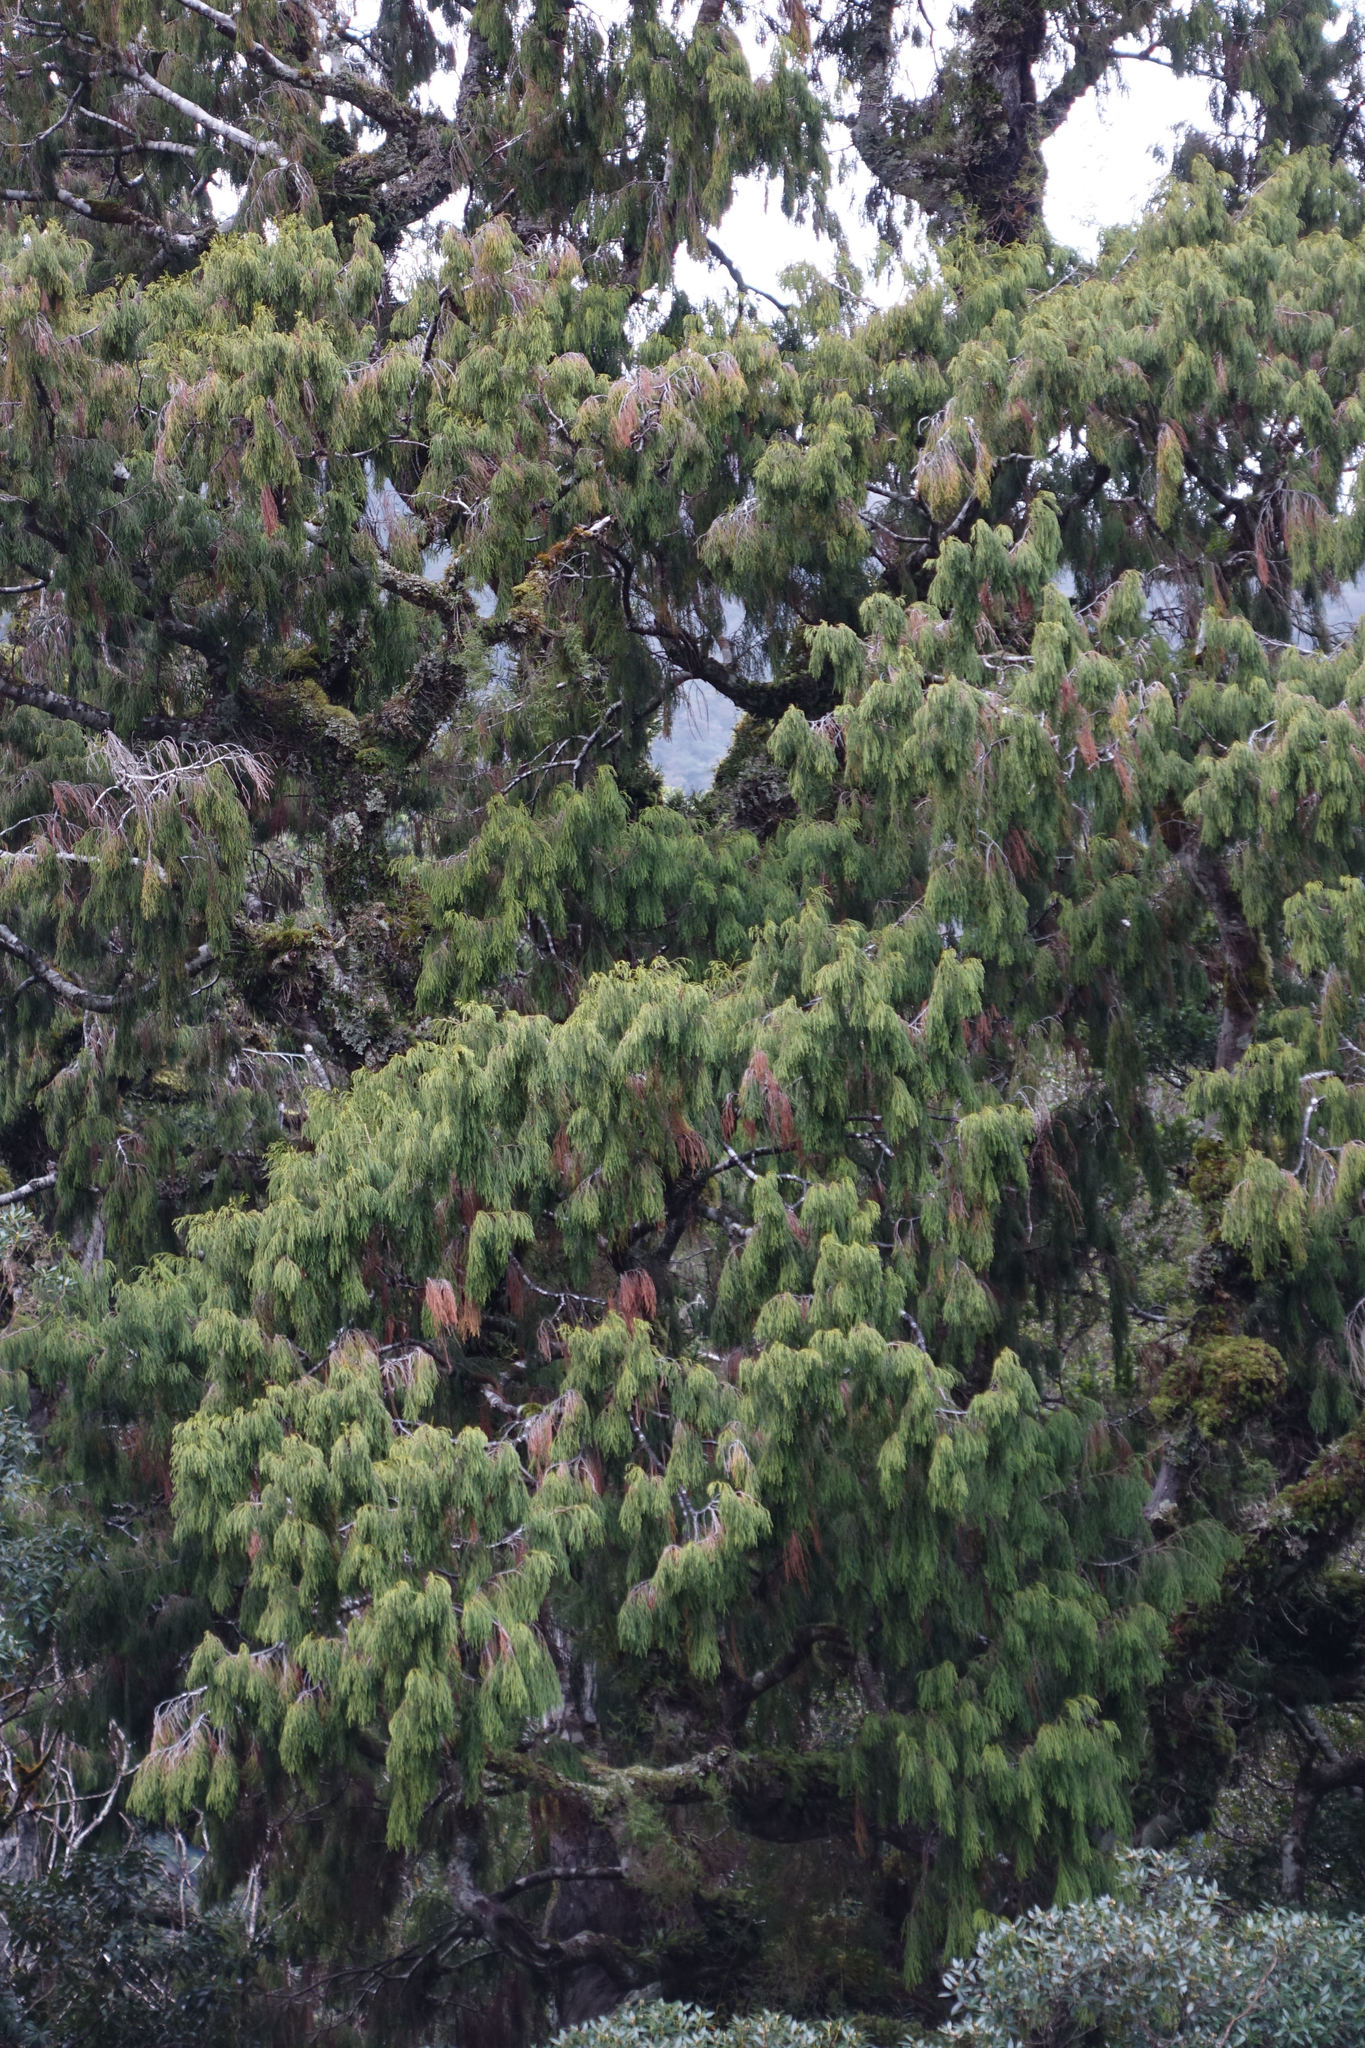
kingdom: Plantae
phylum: Tracheophyta
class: Pinopsida
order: Pinales
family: Podocarpaceae
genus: Dacrydium
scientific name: Dacrydium cupressinum
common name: Red pine
